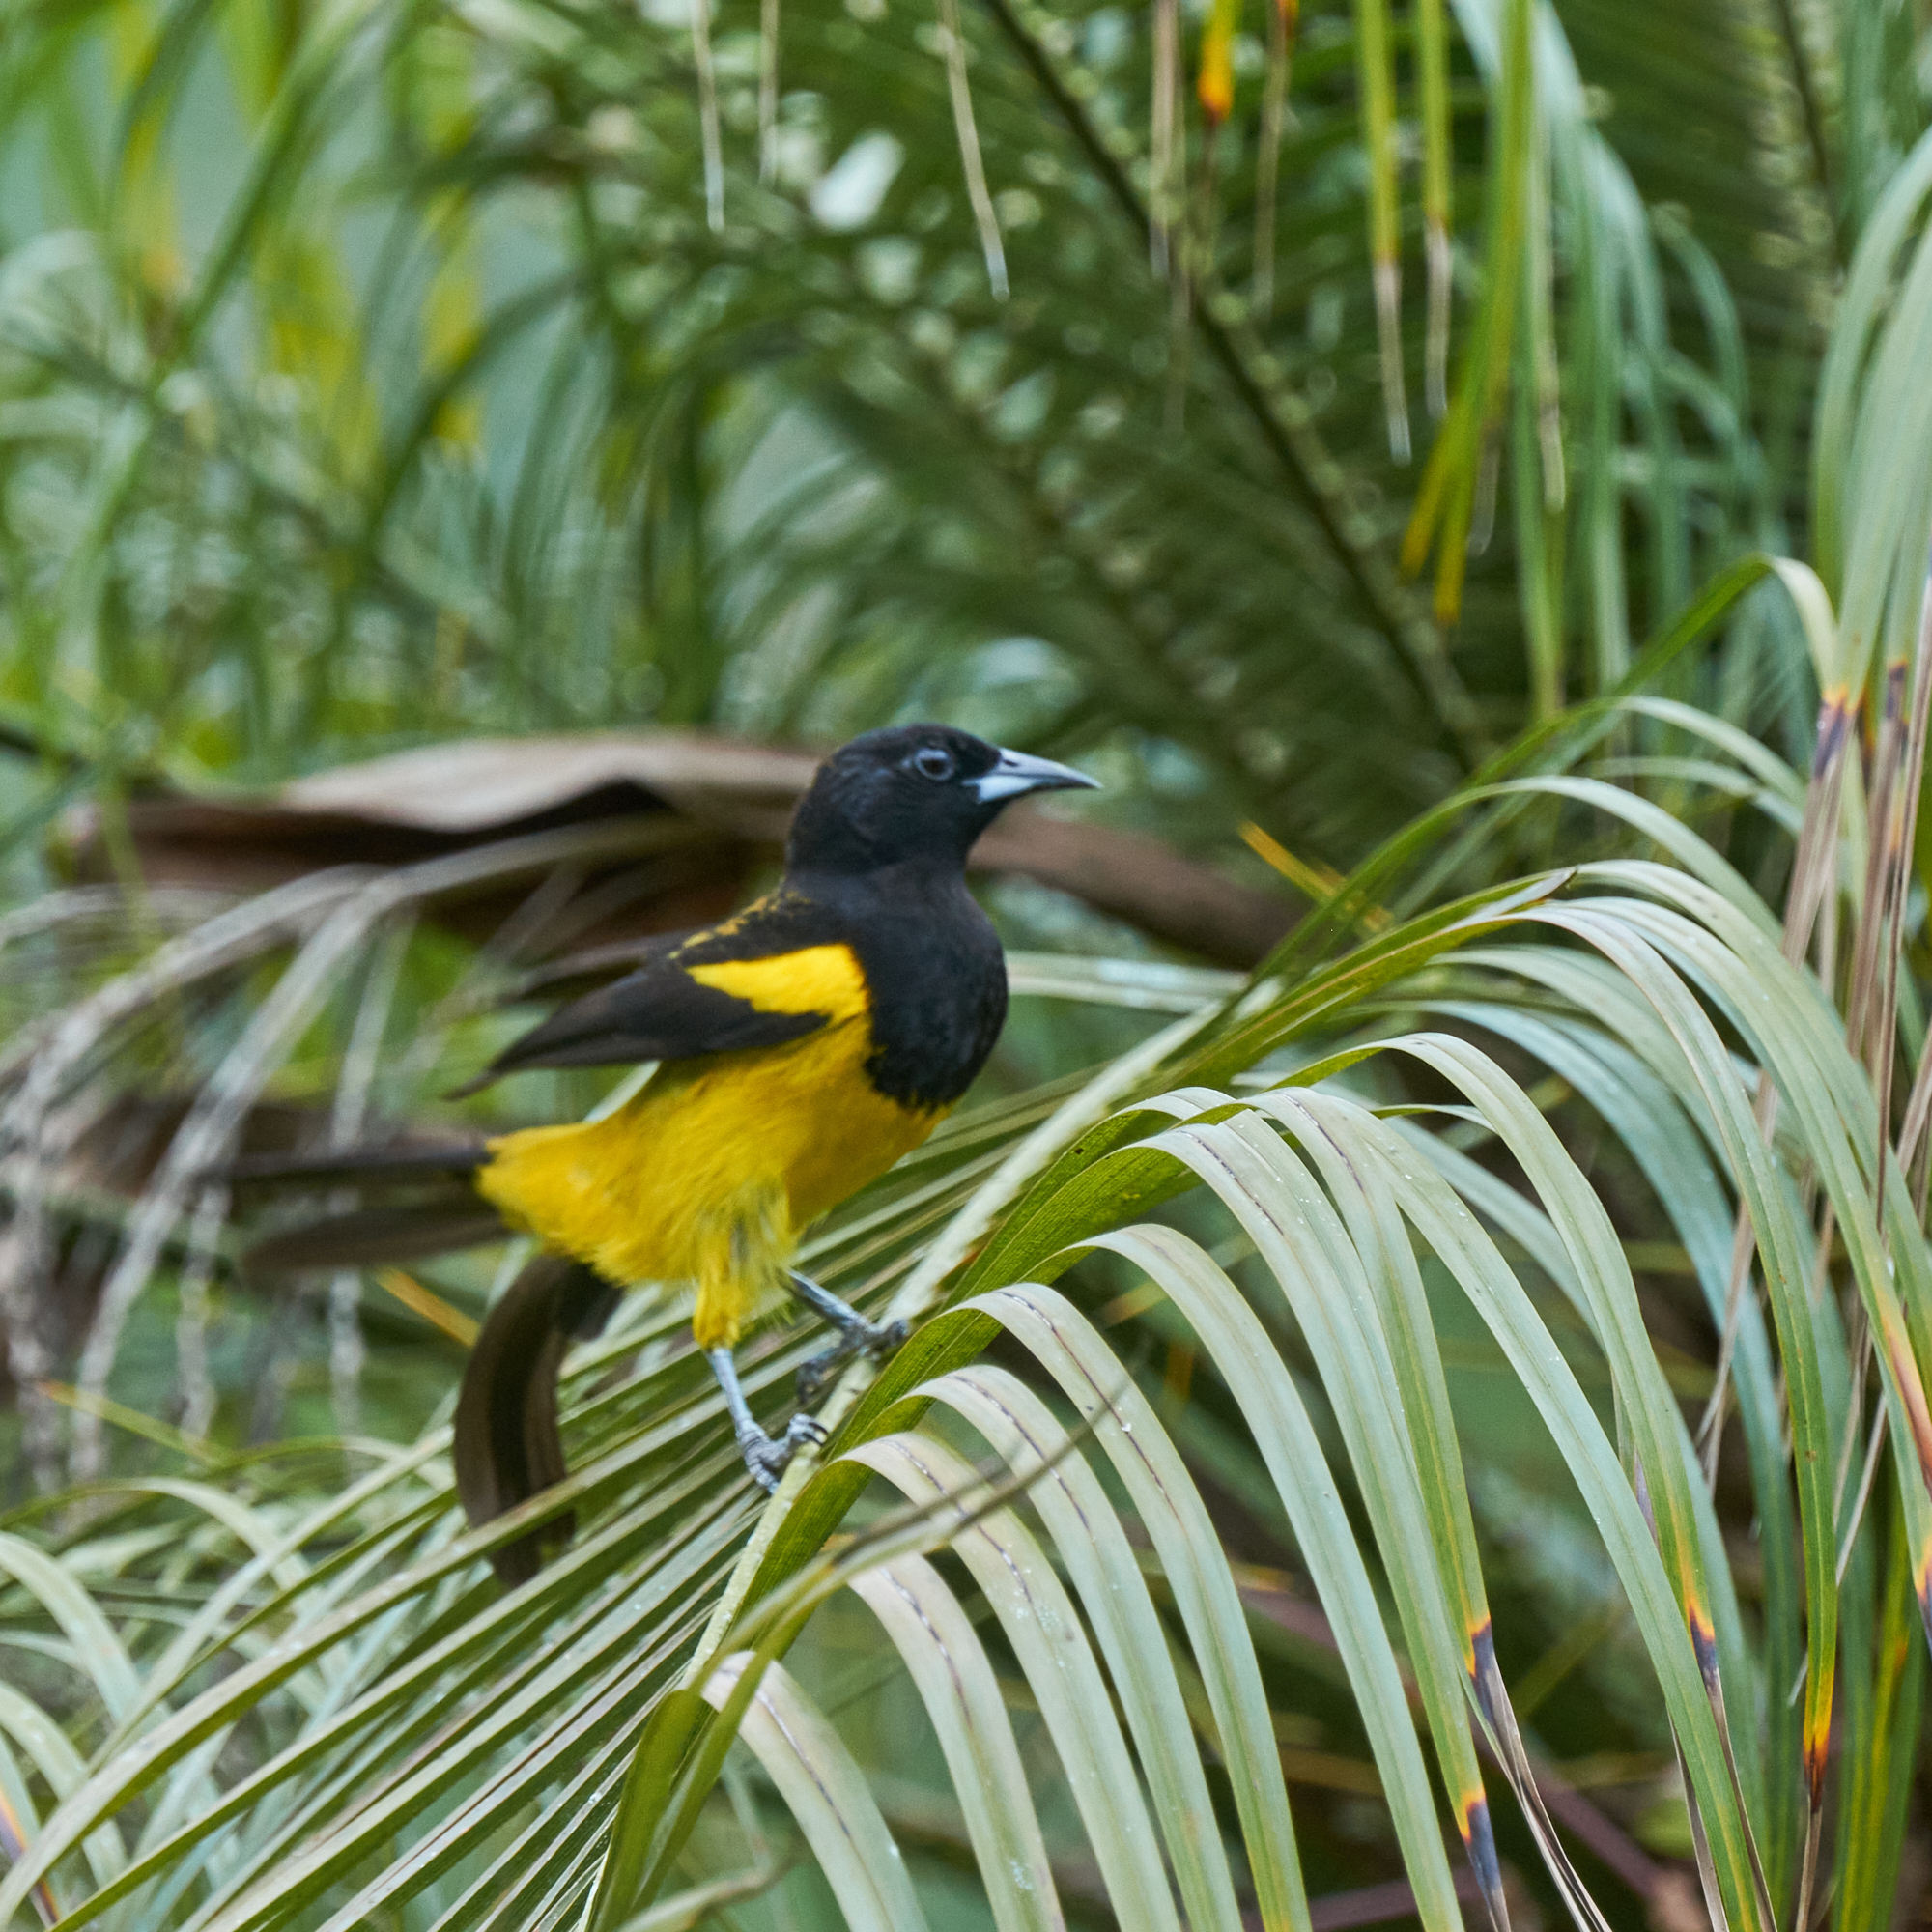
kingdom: Animalia
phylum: Chordata
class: Aves
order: Passeriformes
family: Icteridae
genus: Icterus
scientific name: Icterus prosthemelas
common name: Black-cowled oriole
